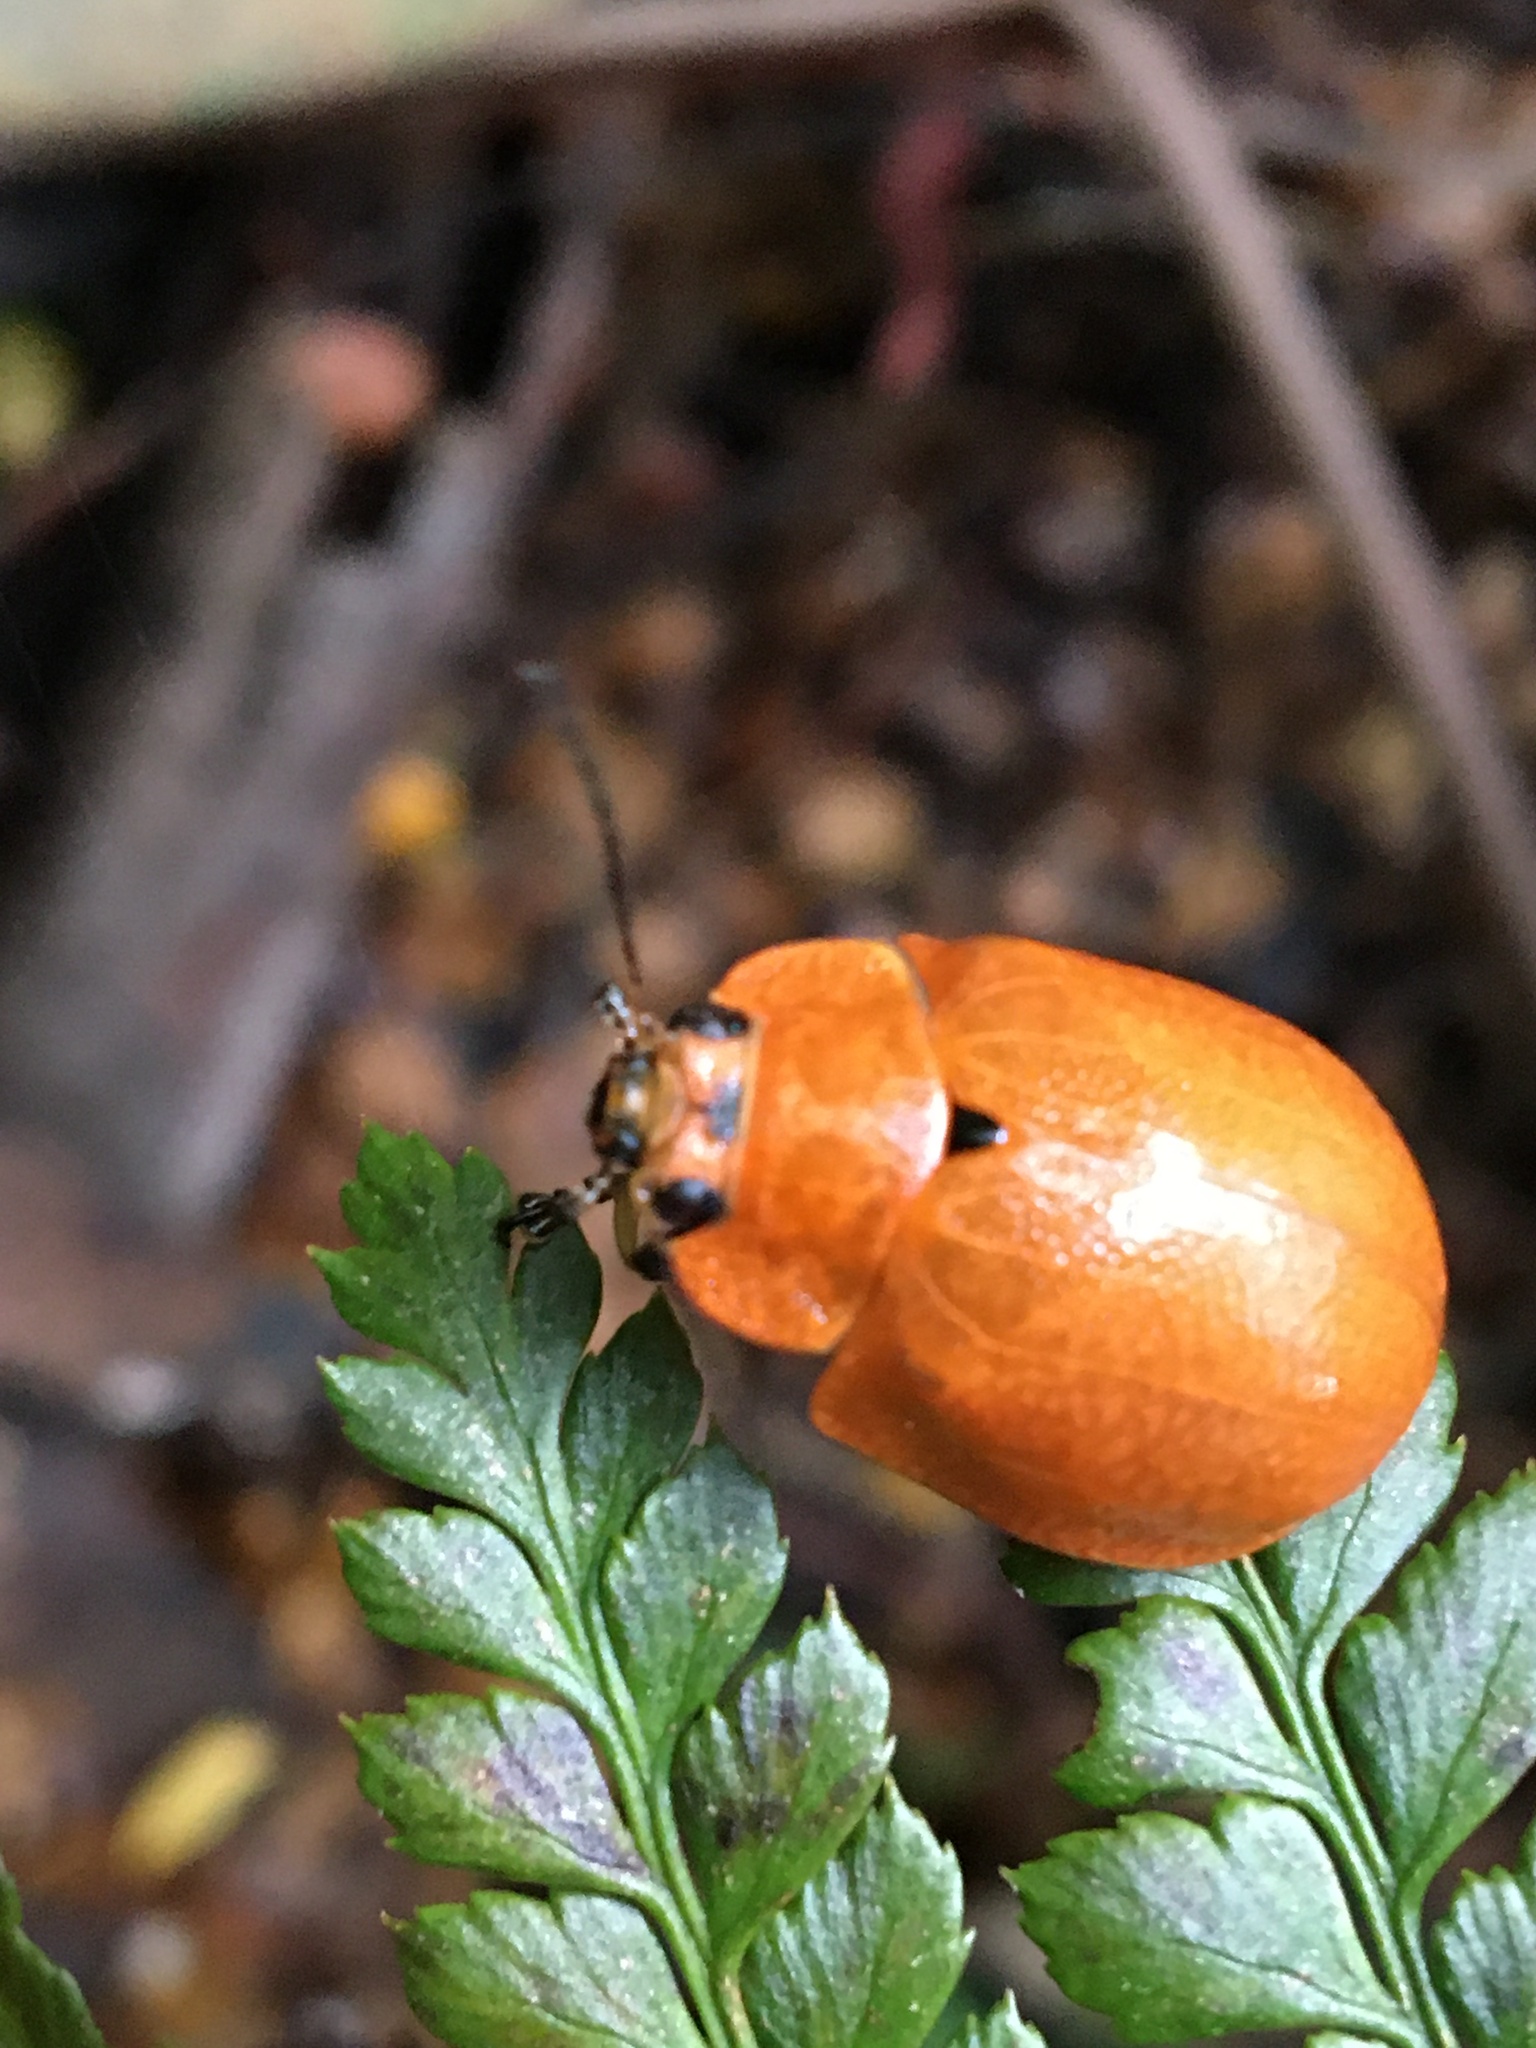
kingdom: Animalia
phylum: Arthropoda
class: Insecta
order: Coleoptera
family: Chrysomelidae
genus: Paropsis
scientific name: Paropsis
